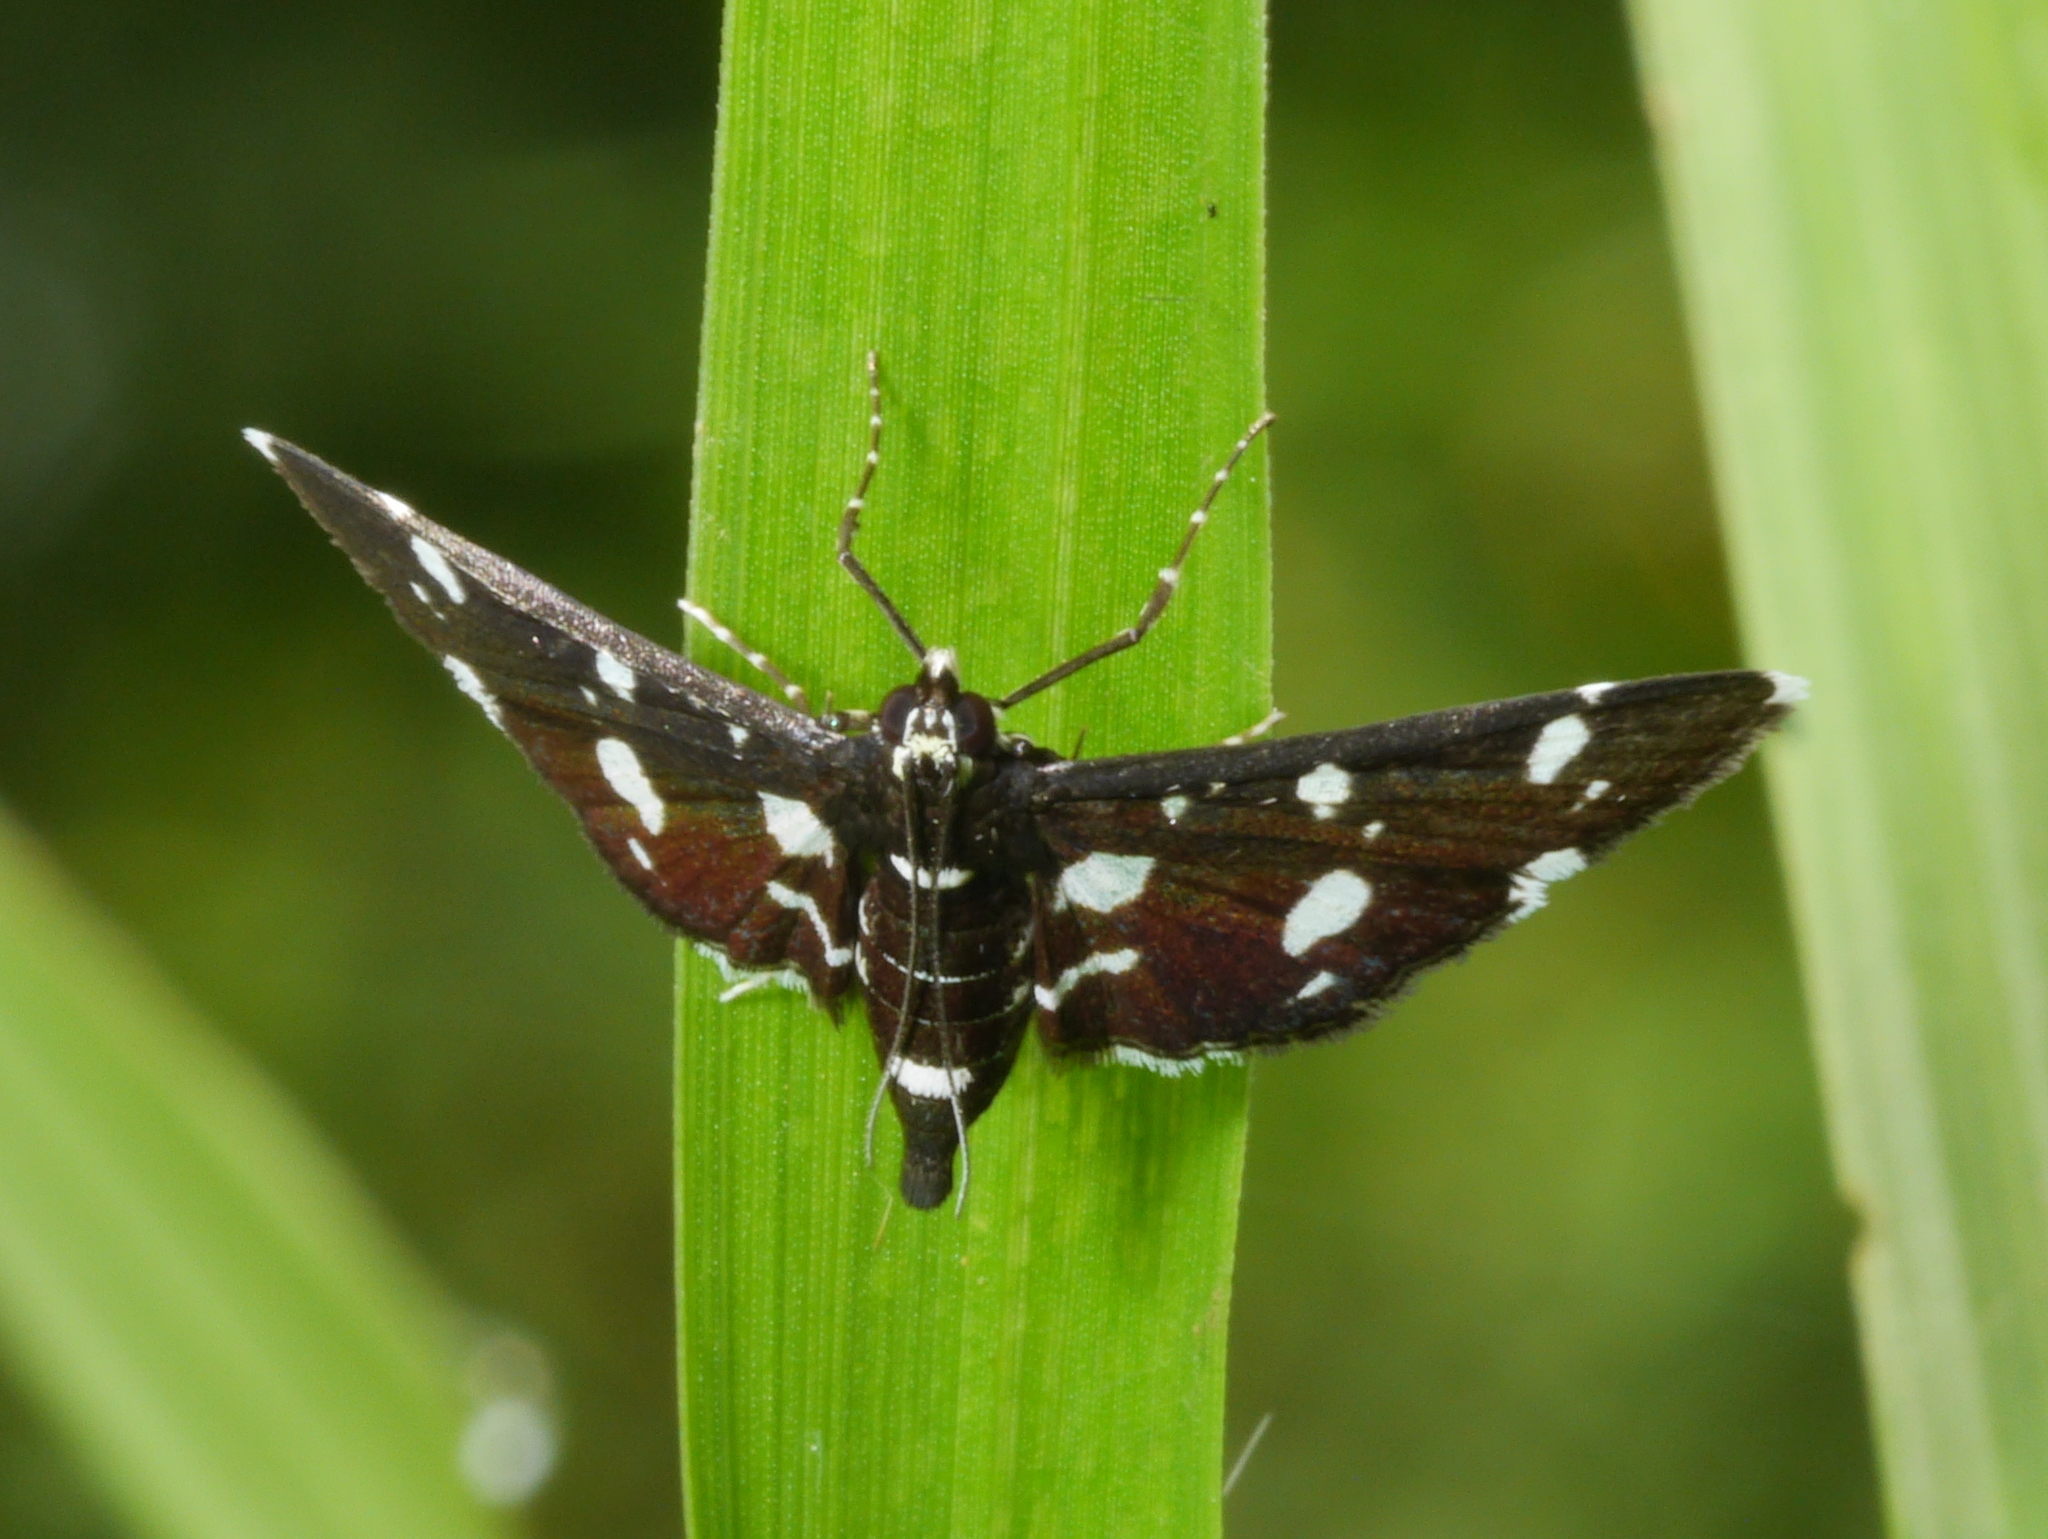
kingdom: Animalia
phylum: Arthropoda
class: Insecta
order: Lepidoptera
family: Crambidae
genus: Bocchoris
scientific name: Bocchoris inspersalis
